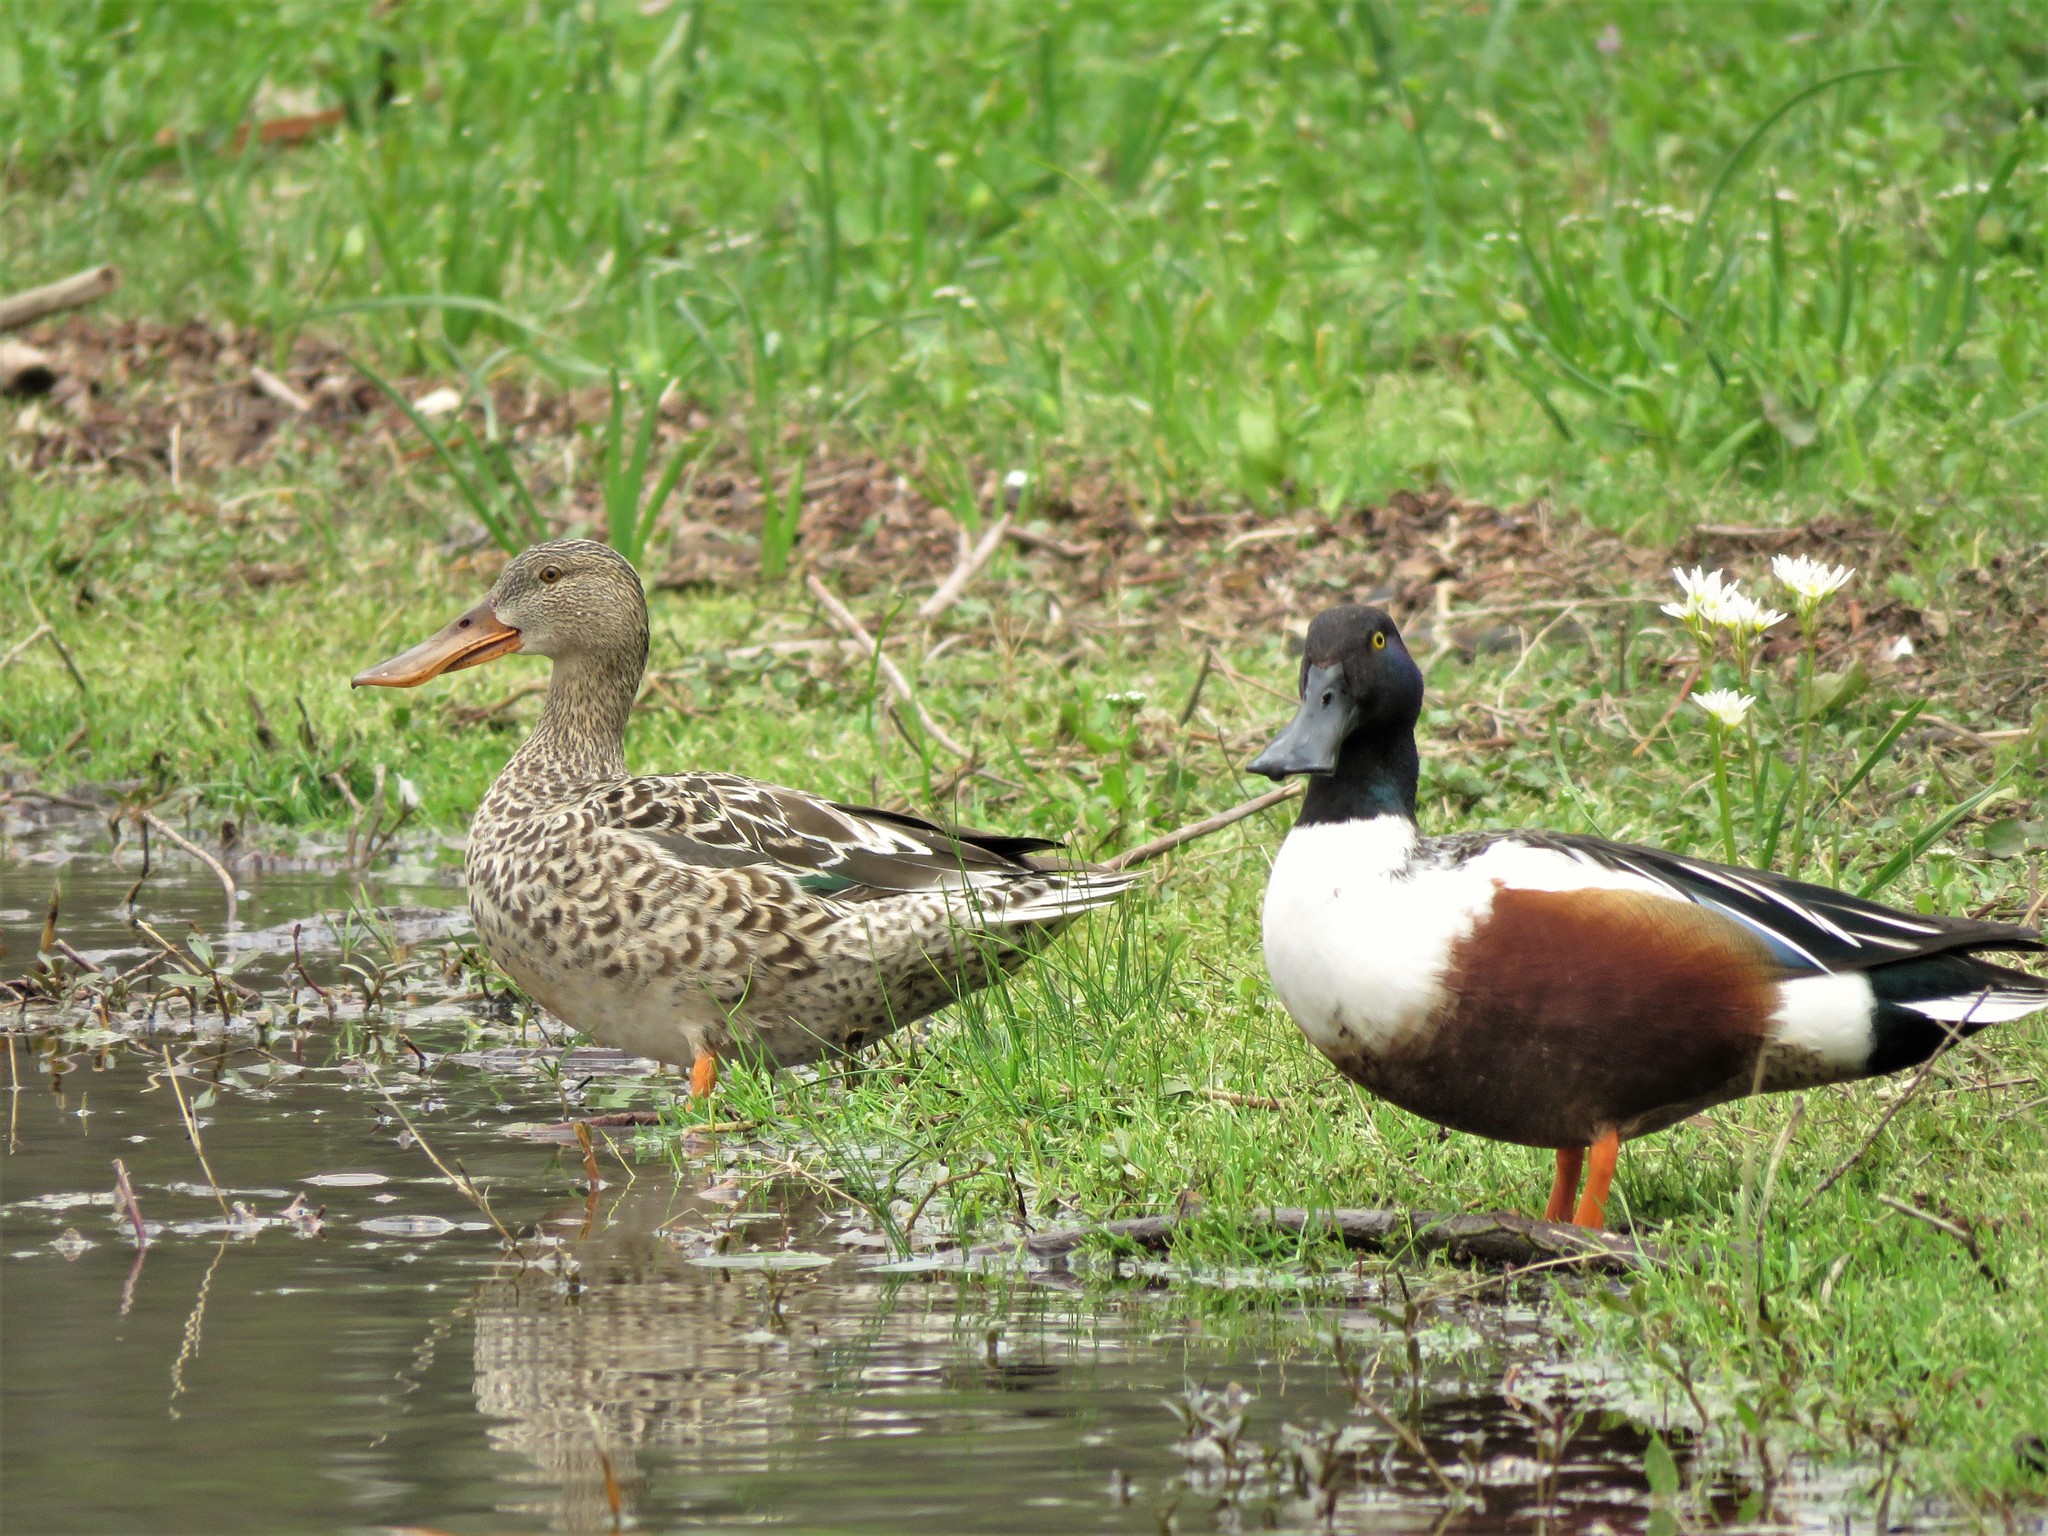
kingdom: Animalia
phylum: Chordata
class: Aves
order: Anseriformes
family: Anatidae
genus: Spatula
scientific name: Spatula clypeata
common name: Northern shoveler
